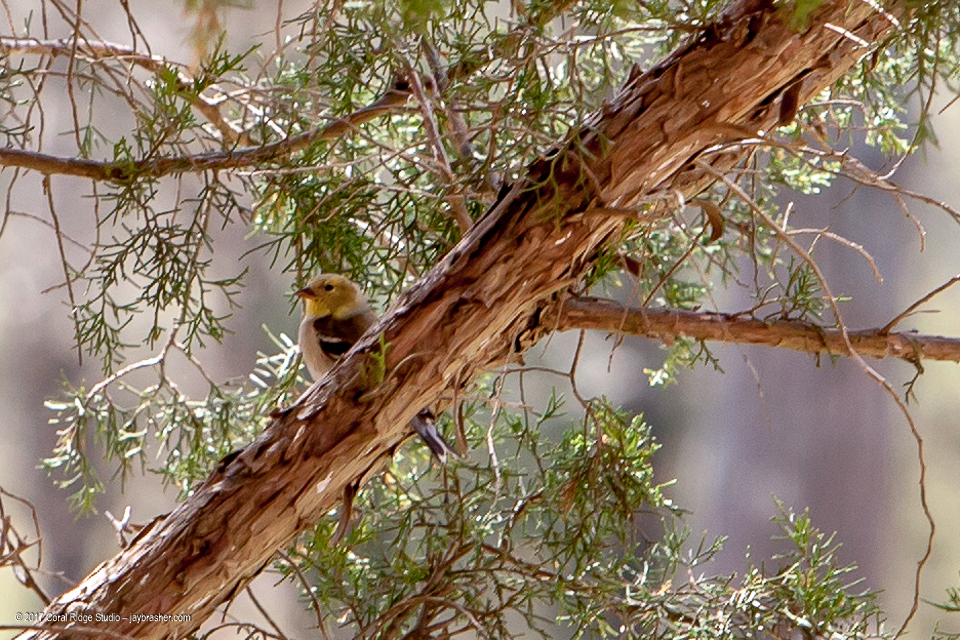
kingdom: Animalia
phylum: Chordata
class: Aves
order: Passeriformes
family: Fringillidae
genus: Spinus
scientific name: Spinus tristis
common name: American goldfinch
